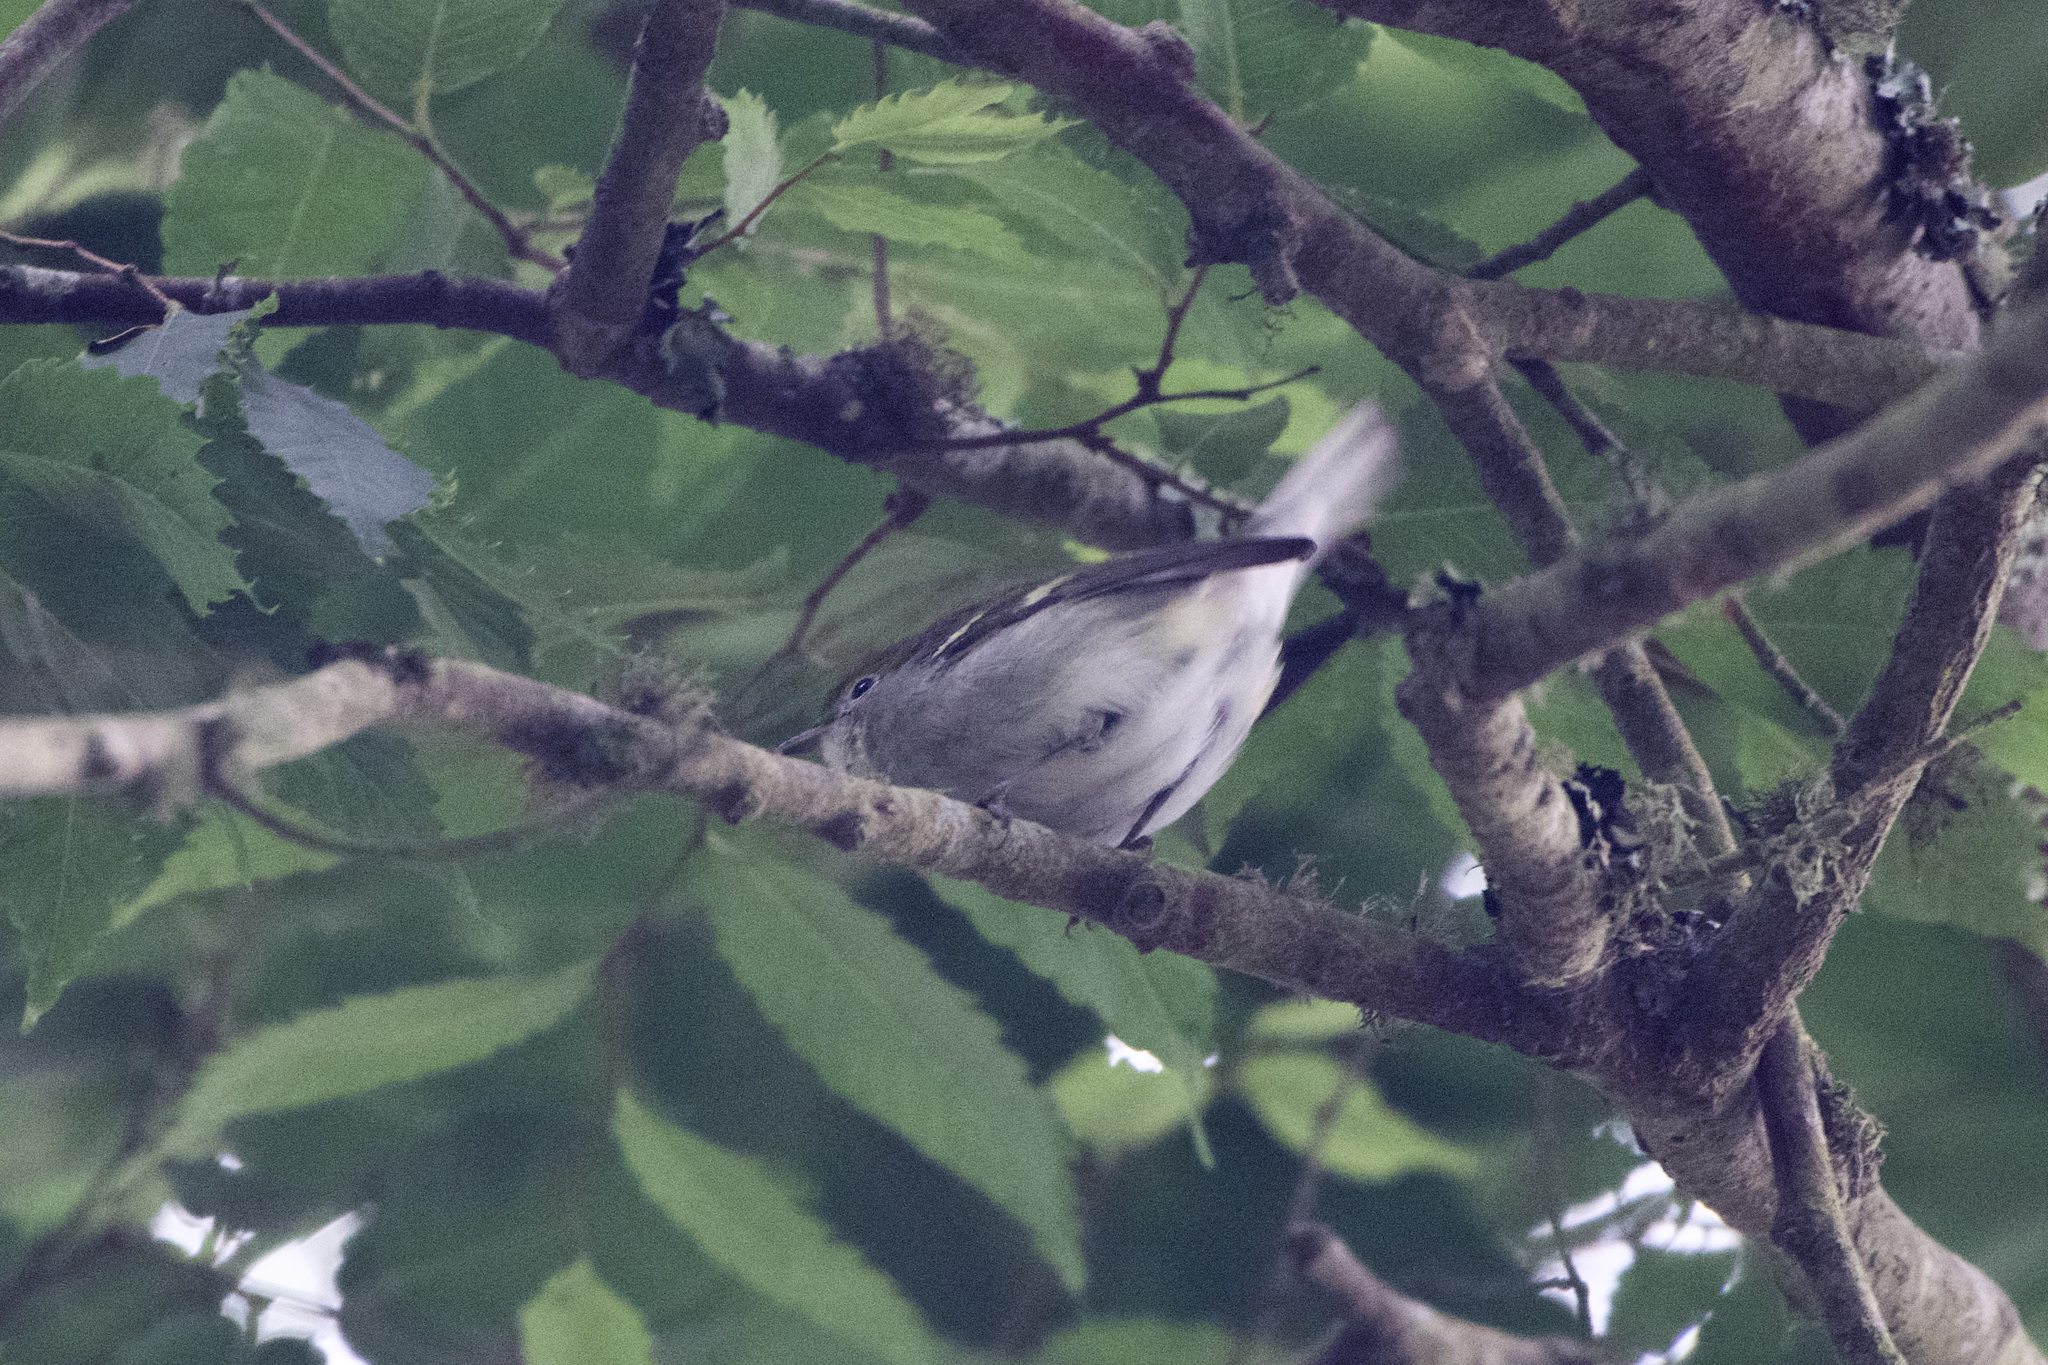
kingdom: Animalia
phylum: Chordata
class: Aves
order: Passeriformes
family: Parulidae
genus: Setophaga
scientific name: Setophaga pensylvanica
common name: Chestnut-sided warbler
